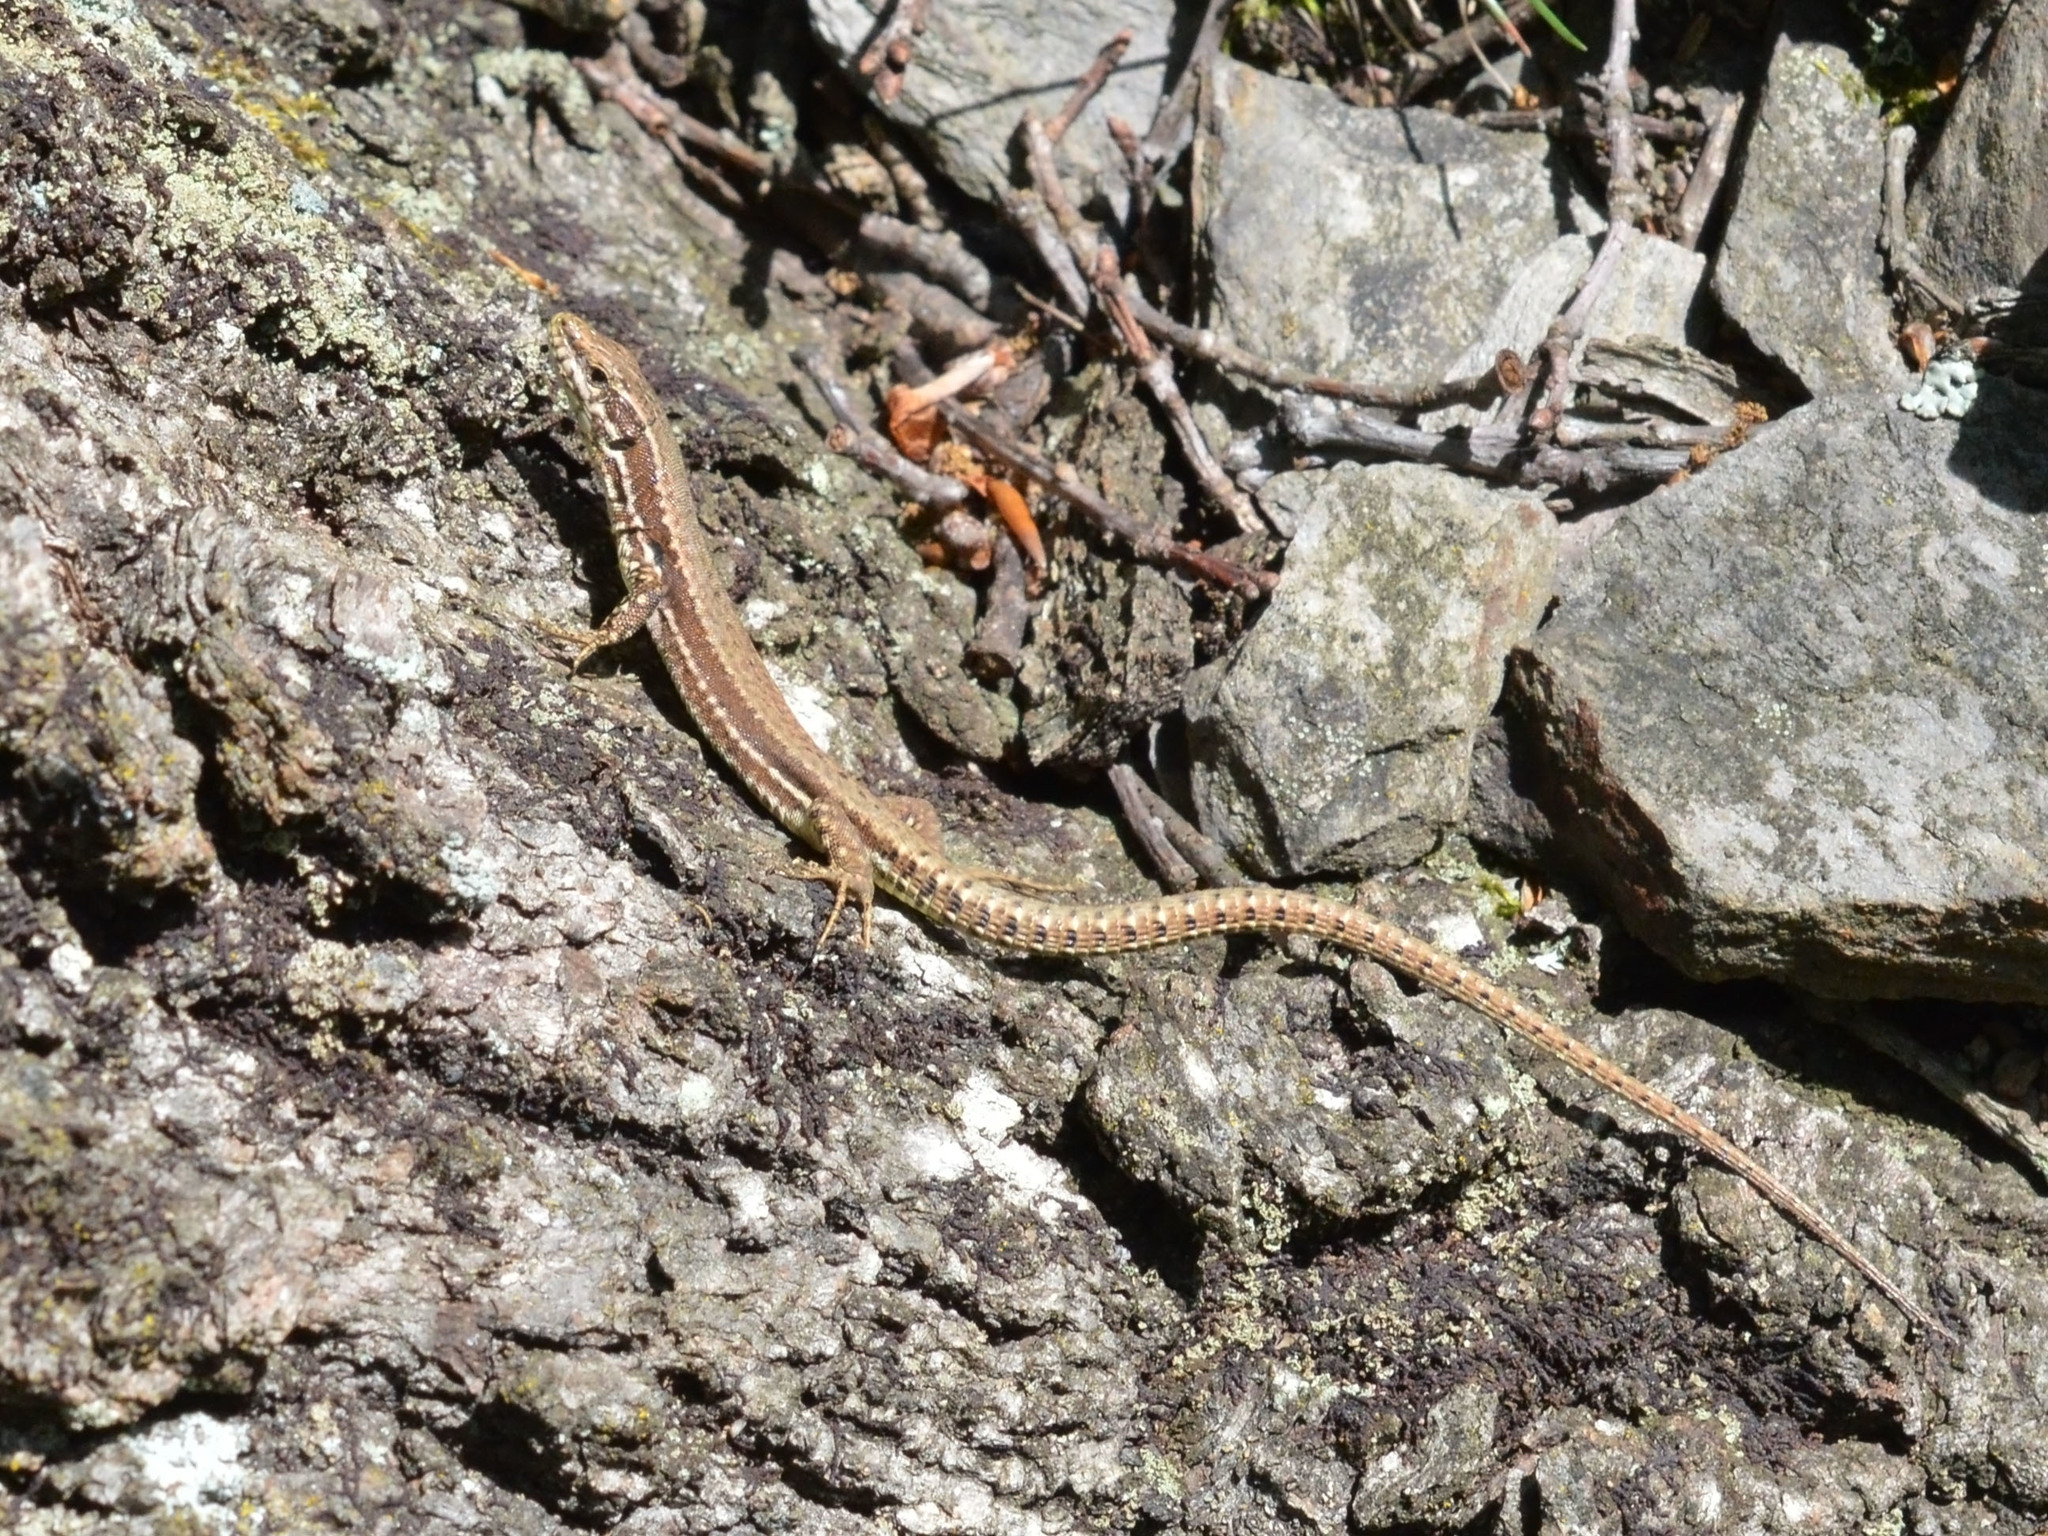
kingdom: Animalia
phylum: Chordata
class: Squamata
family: Lacertidae
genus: Podarcis
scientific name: Podarcis muralis
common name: Common wall lizard
